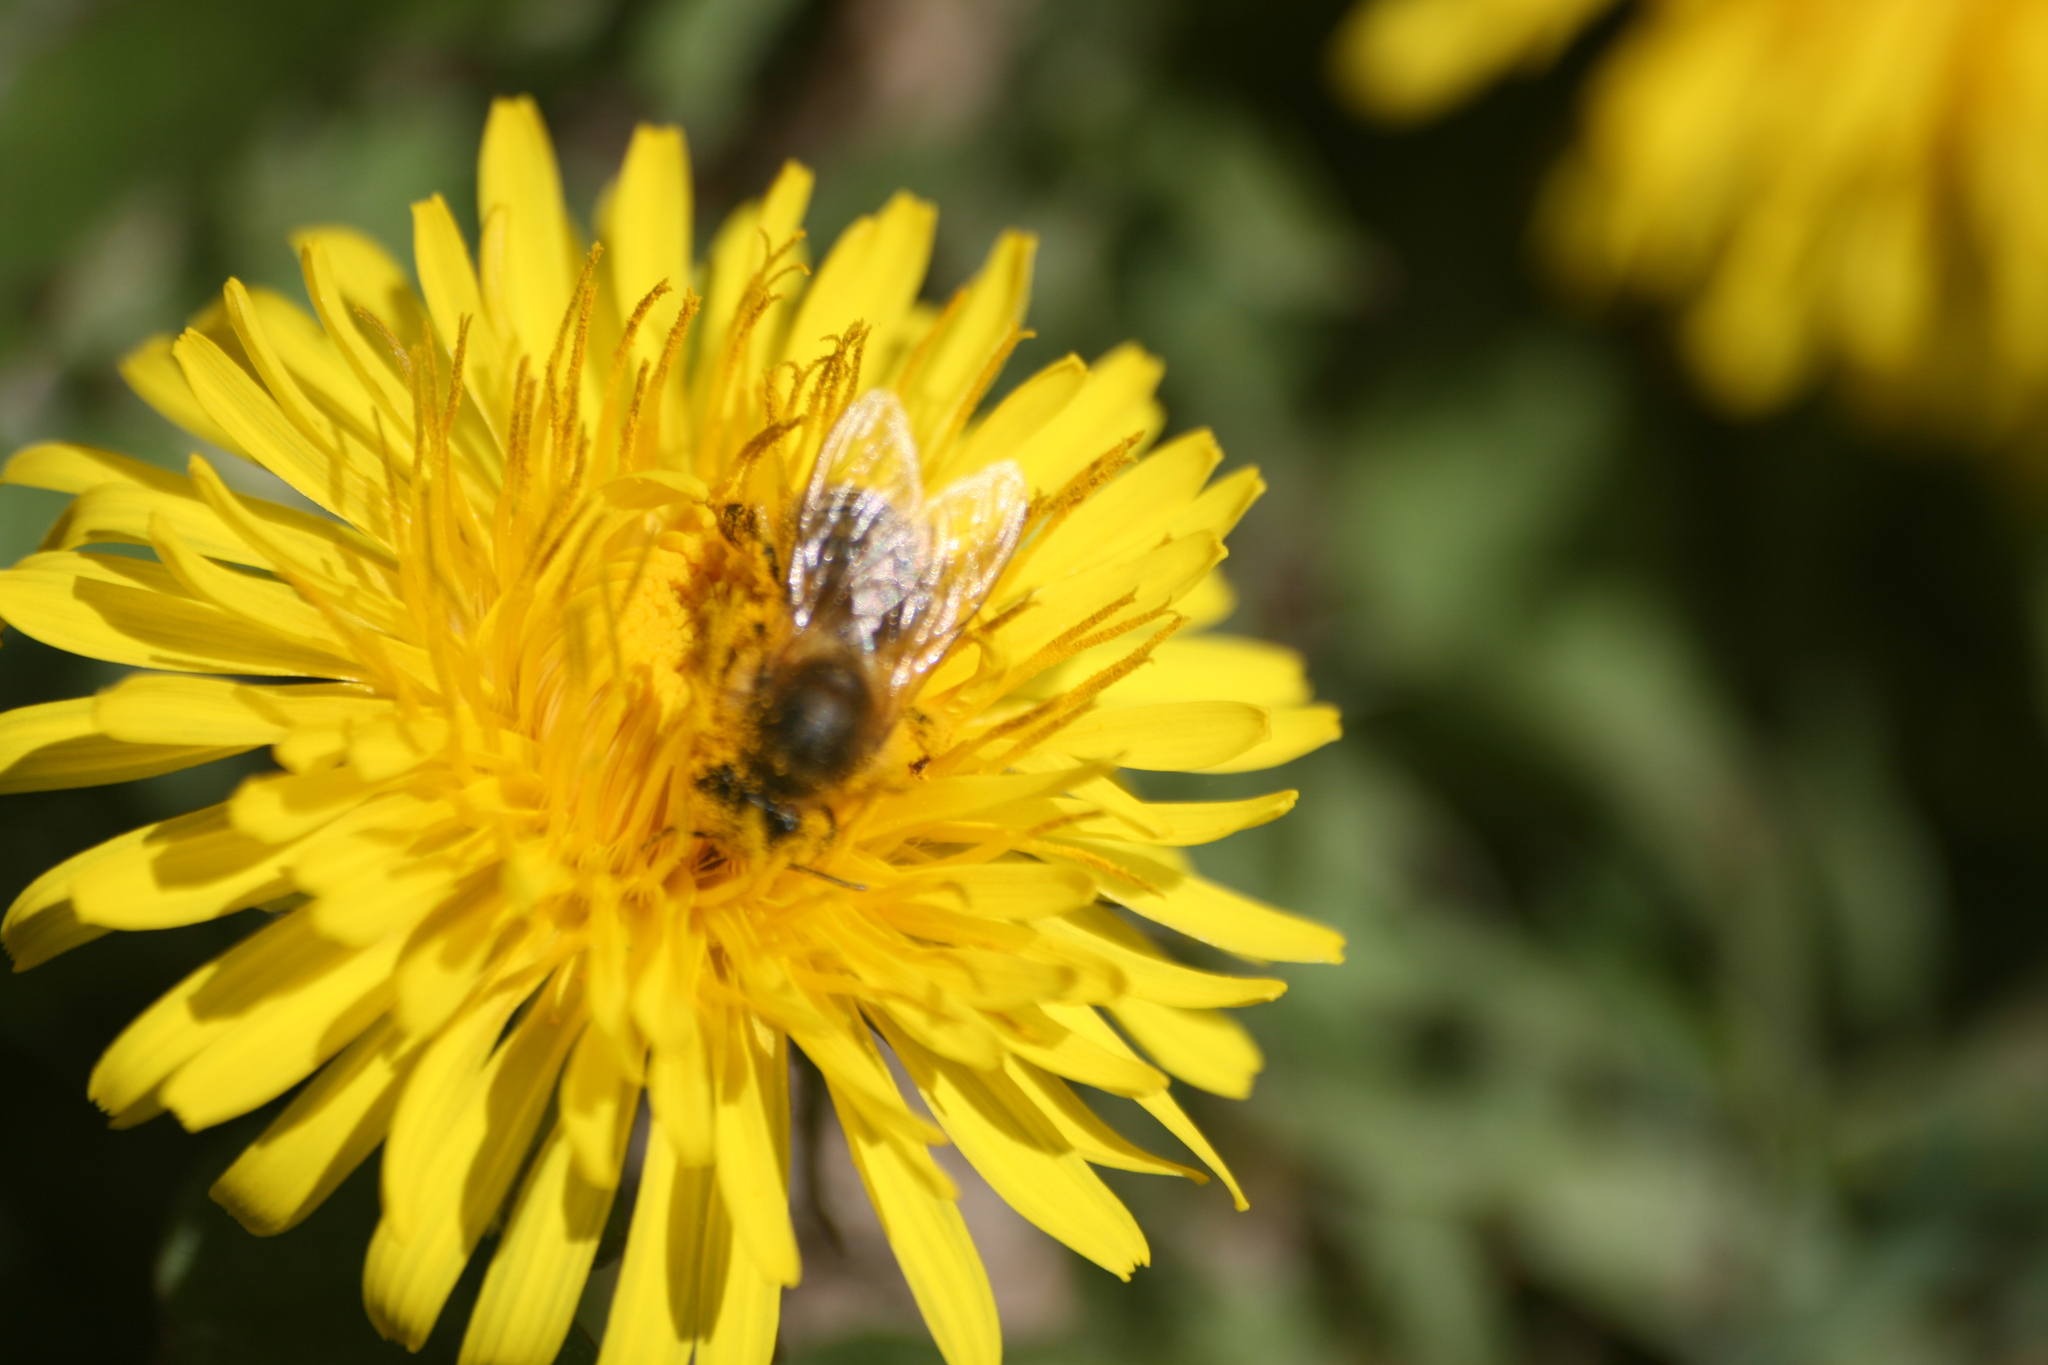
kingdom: Animalia
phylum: Arthropoda
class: Insecta
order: Hymenoptera
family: Apidae
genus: Apis
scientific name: Apis mellifera
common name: Honey bee
